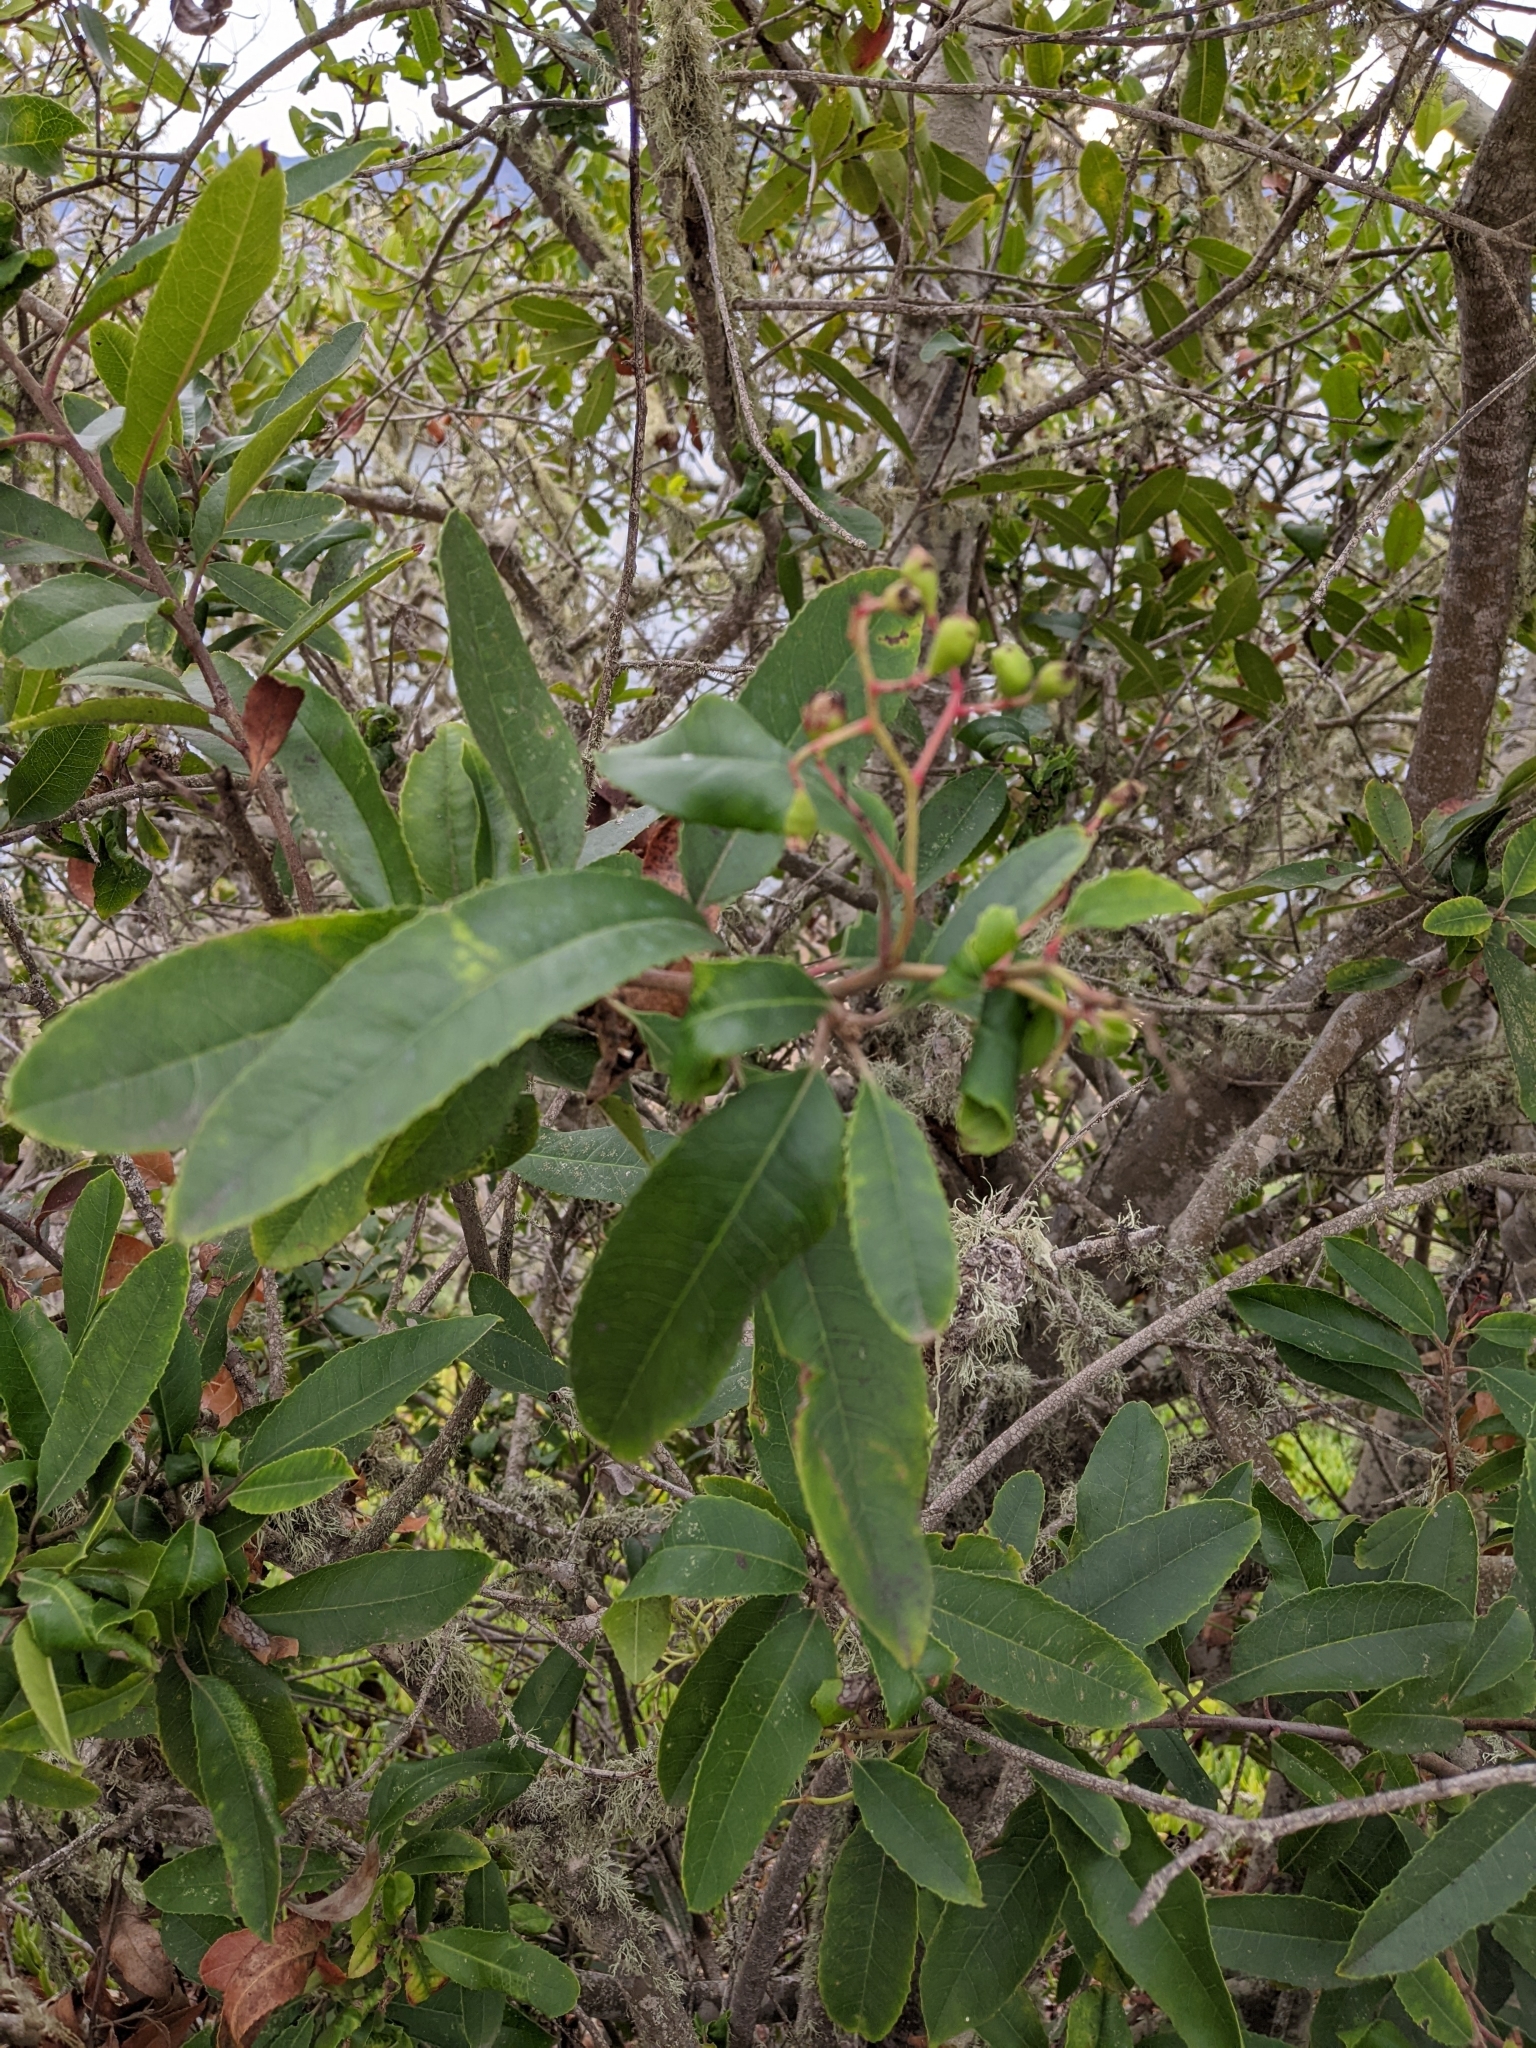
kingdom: Plantae
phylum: Tracheophyta
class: Magnoliopsida
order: Rosales
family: Rosaceae
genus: Heteromeles
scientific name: Heteromeles arbutifolia
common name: California-holly
